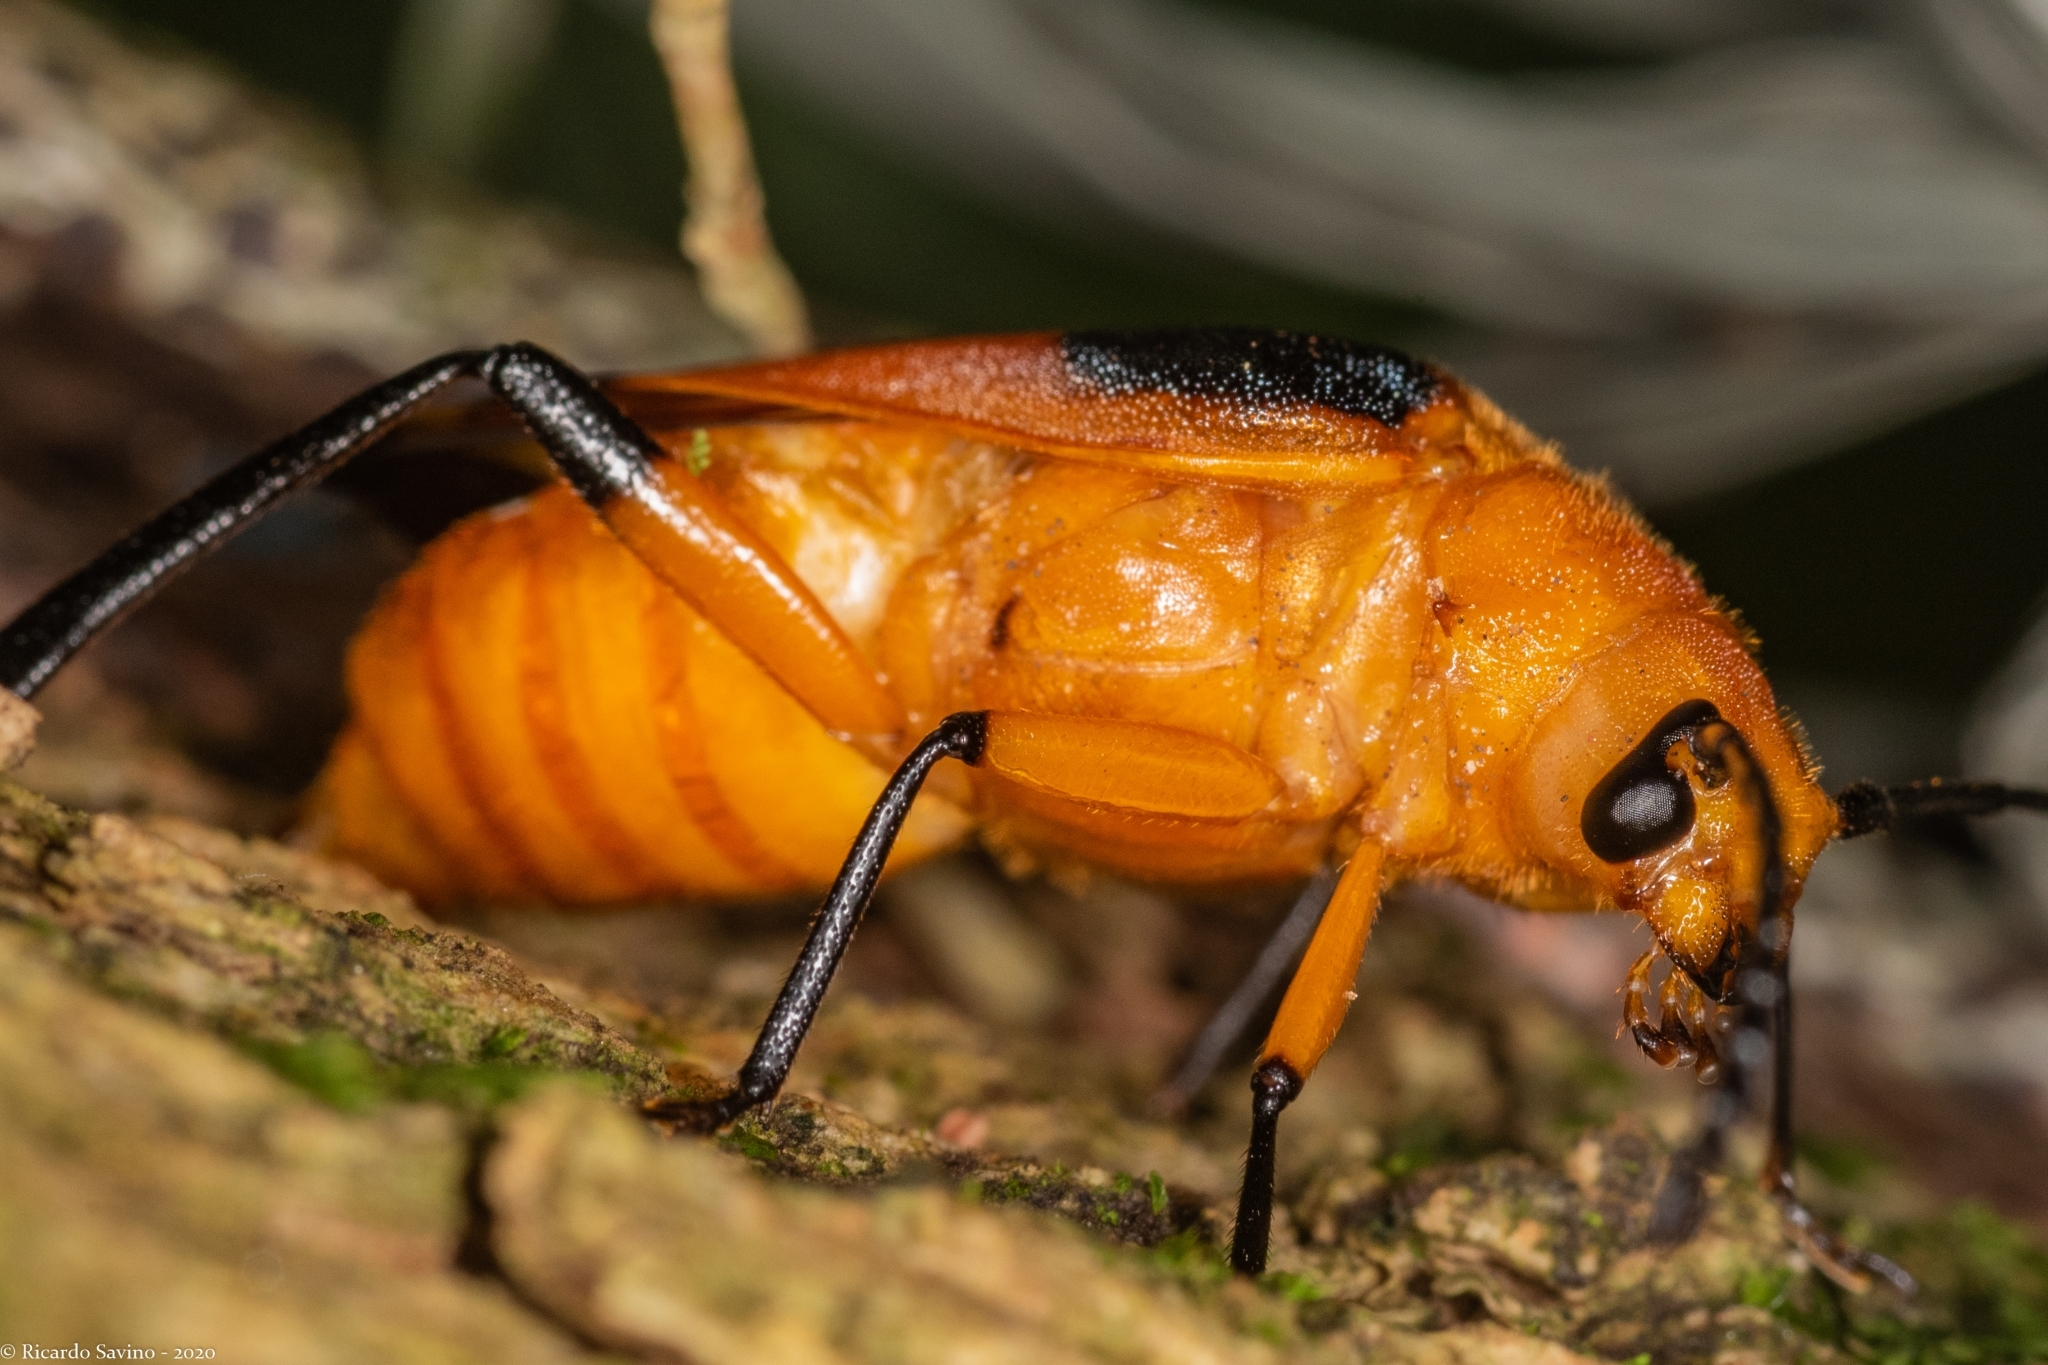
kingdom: Animalia
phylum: Arthropoda
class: Insecta
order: Coleoptera
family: Cerambycidae
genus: Myzomorphus
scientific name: Myzomorphus quadripunctatus
